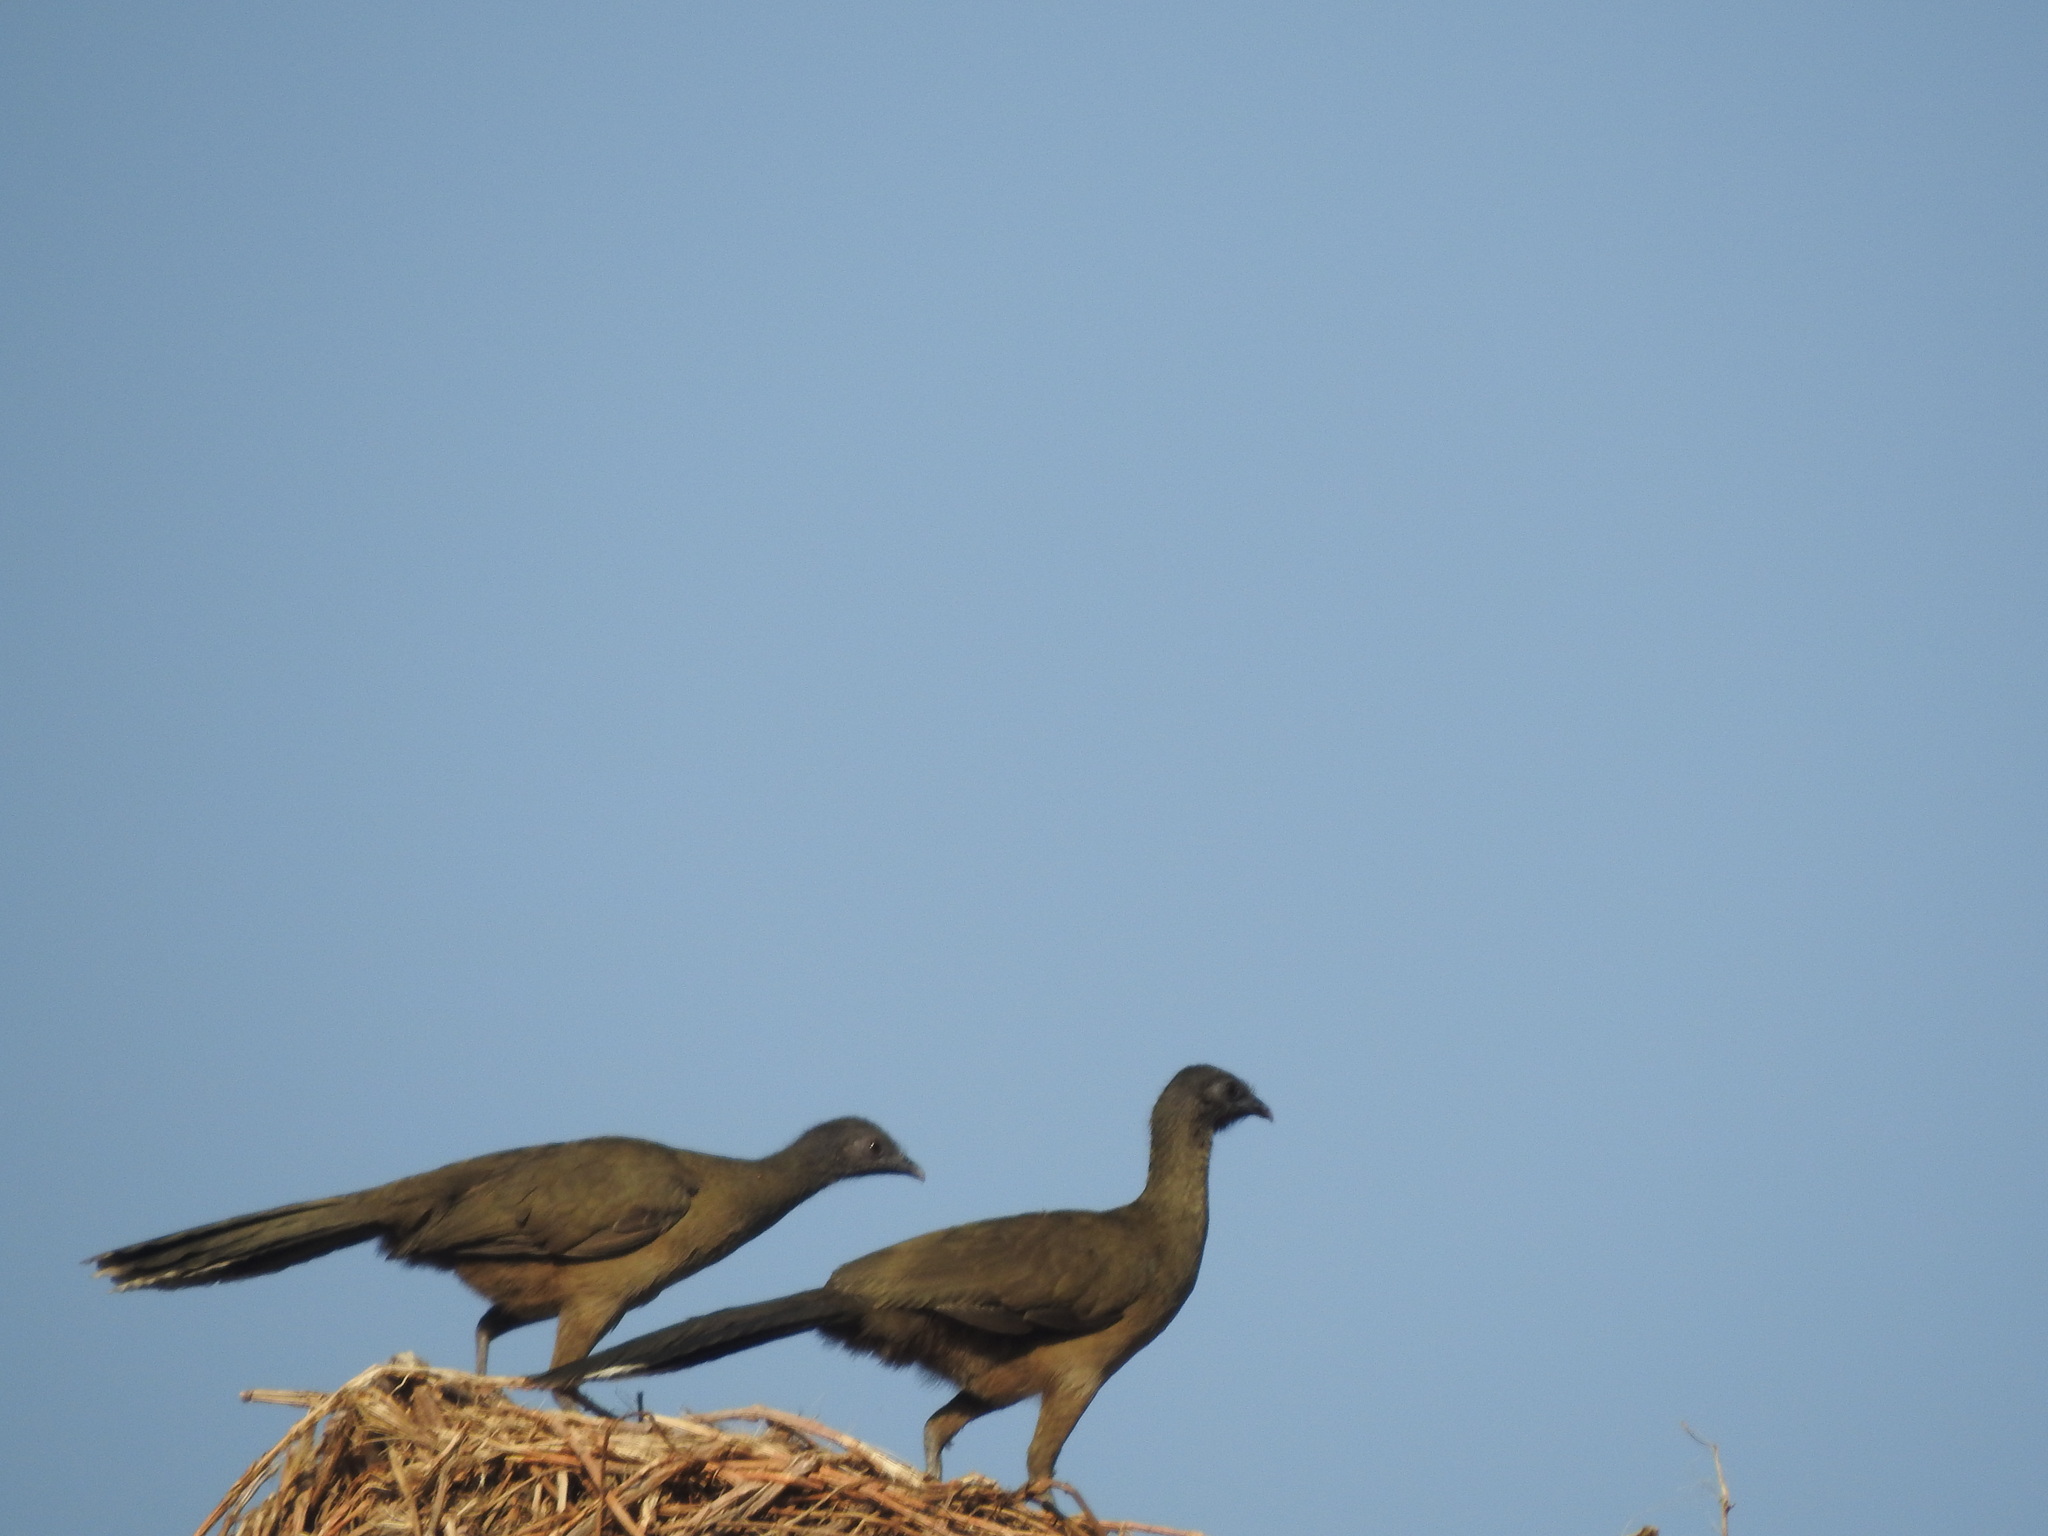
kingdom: Animalia
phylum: Chordata
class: Aves
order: Galliformes
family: Cracidae
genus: Ortalis
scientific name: Ortalis vetula
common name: Plain chachalaca
